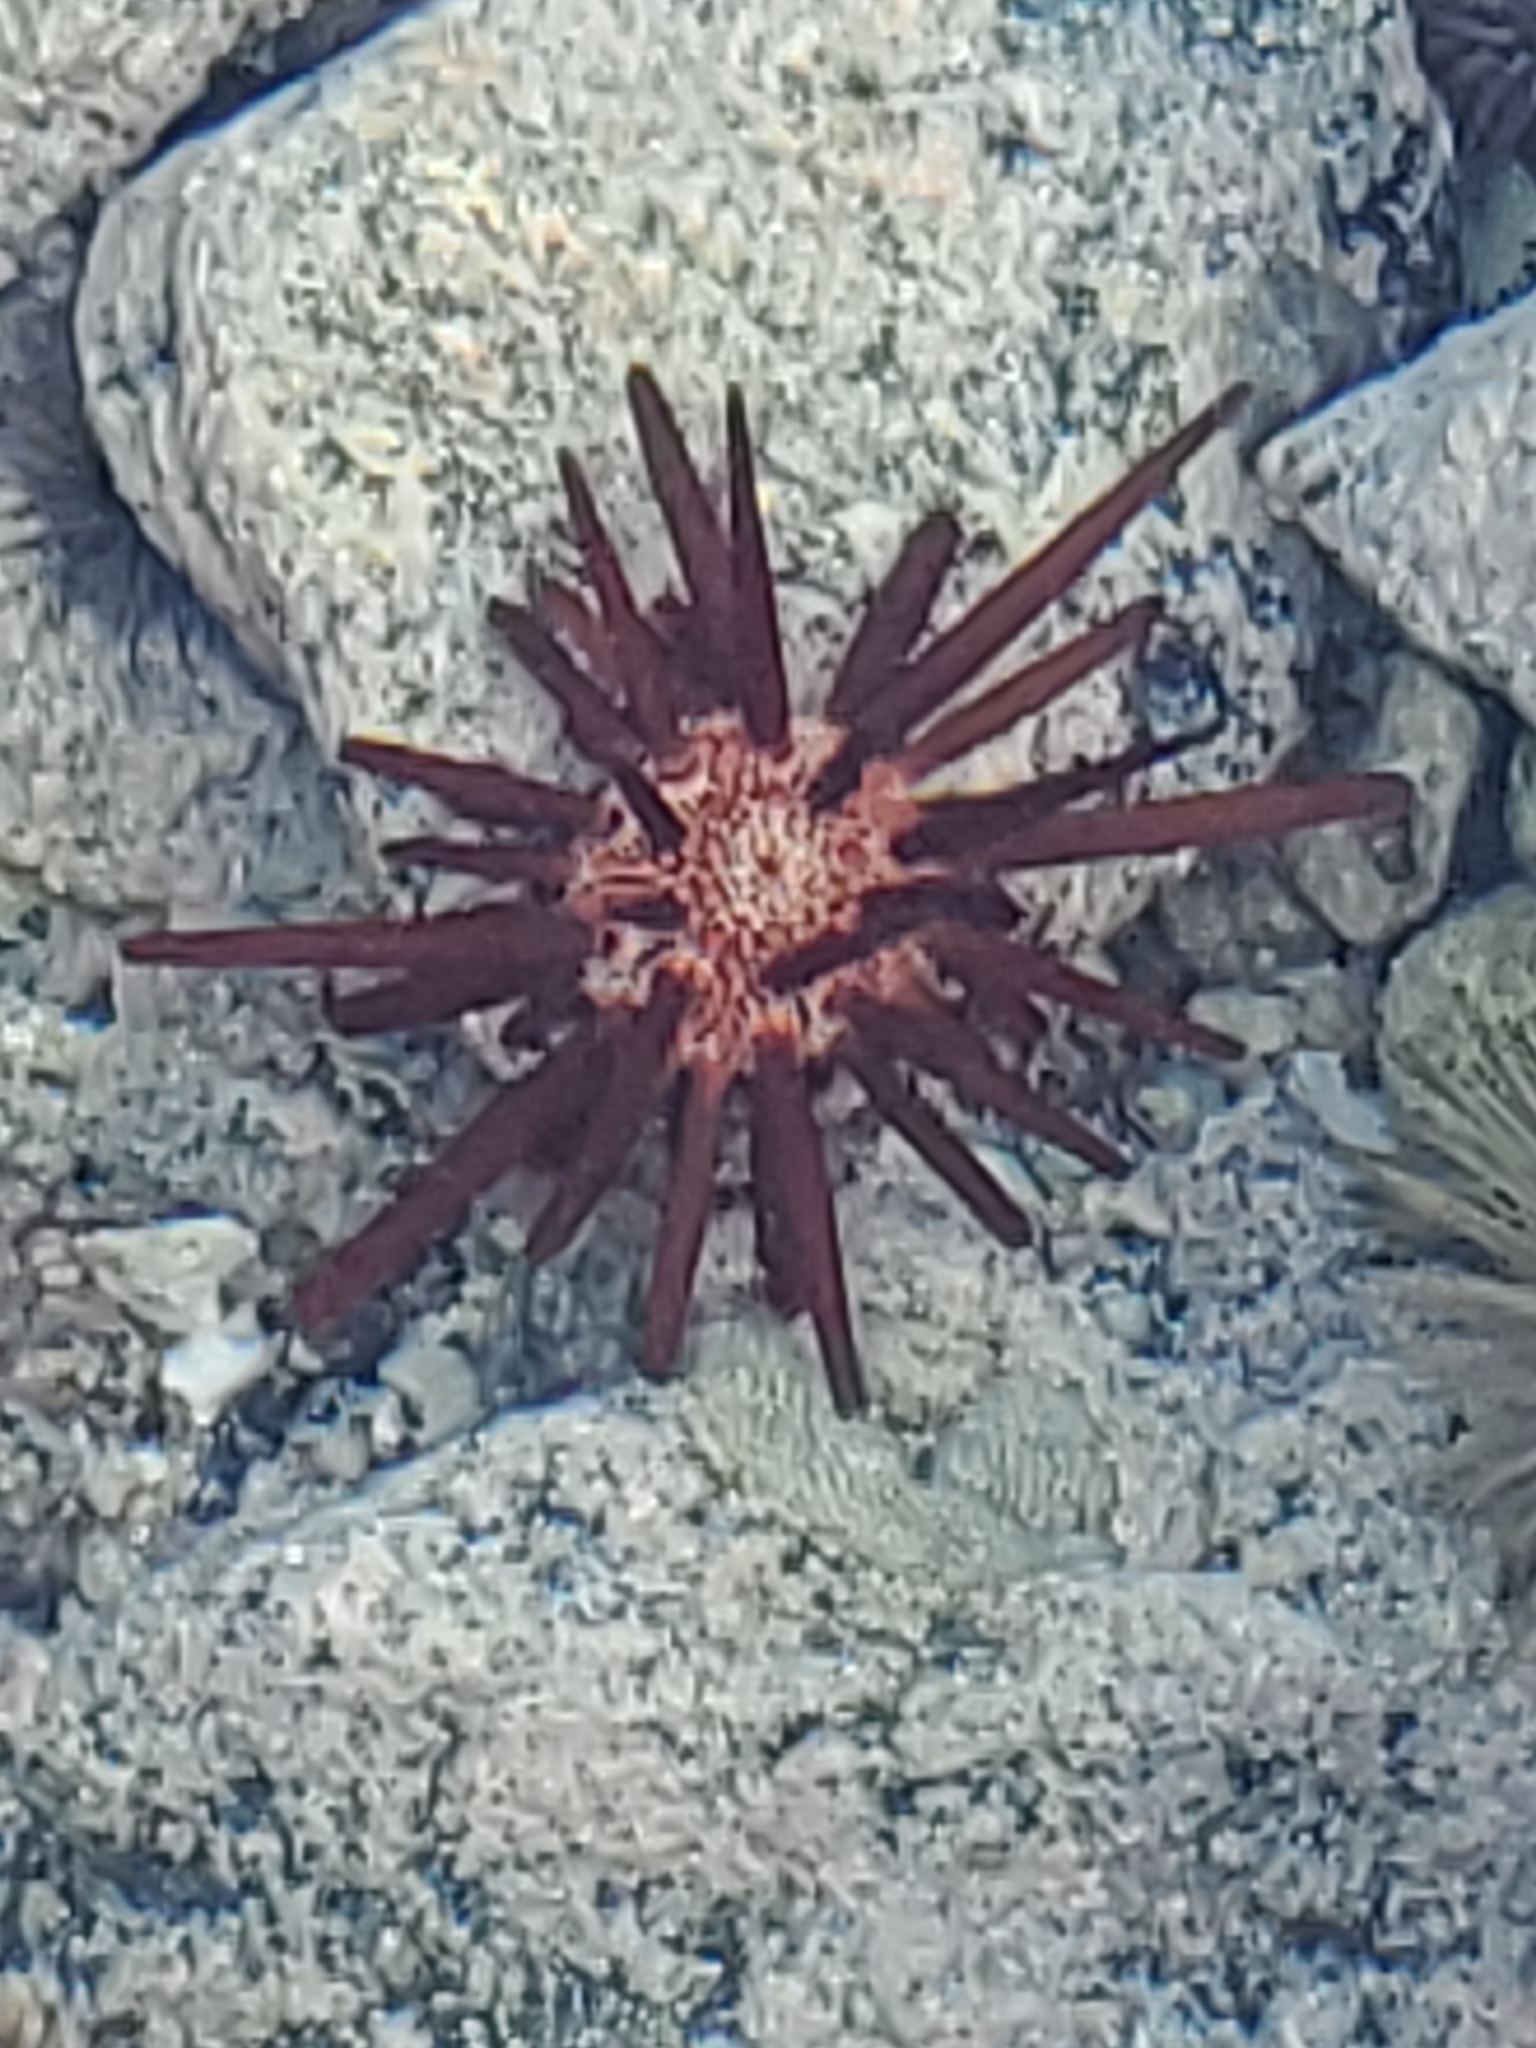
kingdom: Animalia
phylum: Echinodermata
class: Echinoidea
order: Camarodonta
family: Echinometridae
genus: Heterocentrotus
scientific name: Heterocentrotus mamillatus
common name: Slate pencil urchin
